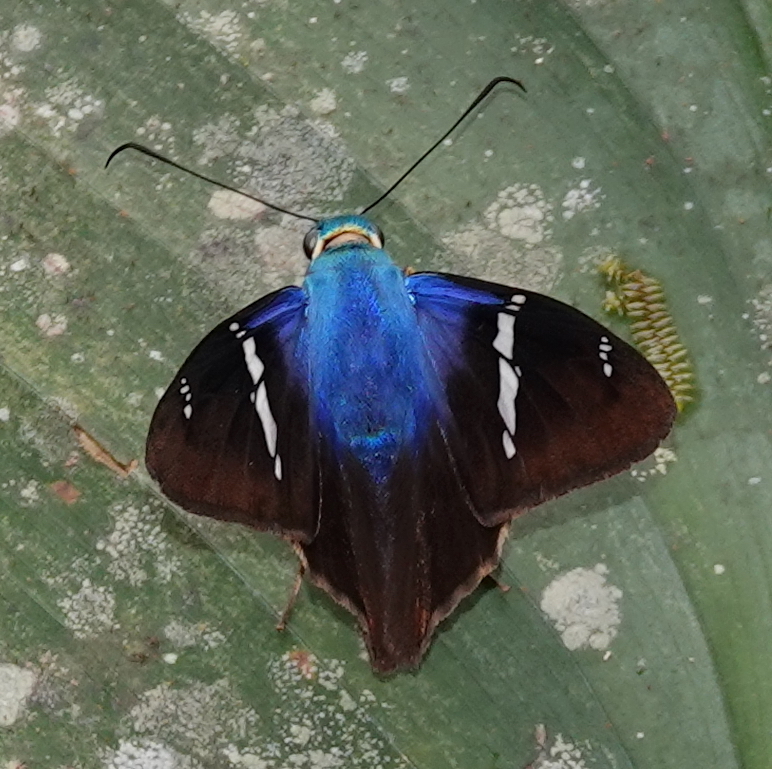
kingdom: Animalia
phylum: Arthropoda
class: Insecta
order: Lepidoptera
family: Hesperiidae
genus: Astraptes
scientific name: Astraptes fulgerator
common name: Two-barred flasher
